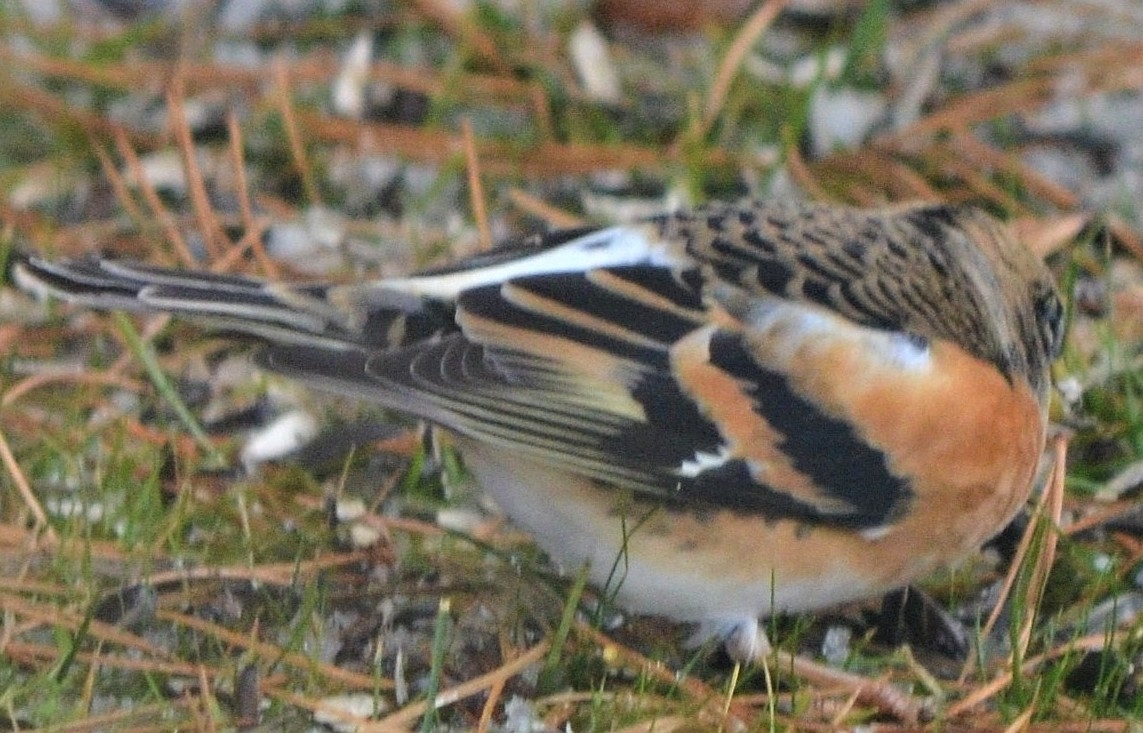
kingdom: Animalia
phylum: Chordata
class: Aves
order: Passeriformes
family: Fringillidae
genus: Fringilla
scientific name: Fringilla montifringilla
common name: Brambling
